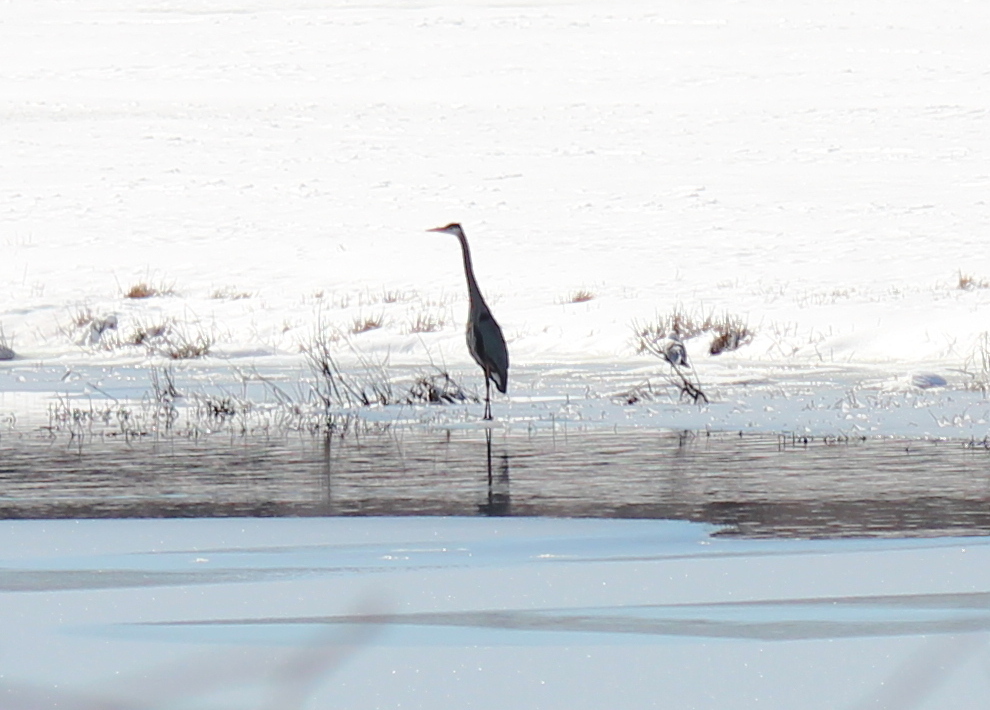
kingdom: Animalia
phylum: Chordata
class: Aves
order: Pelecaniformes
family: Ardeidae
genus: Ardea
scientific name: Ardea herodias
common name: Great blue heron
